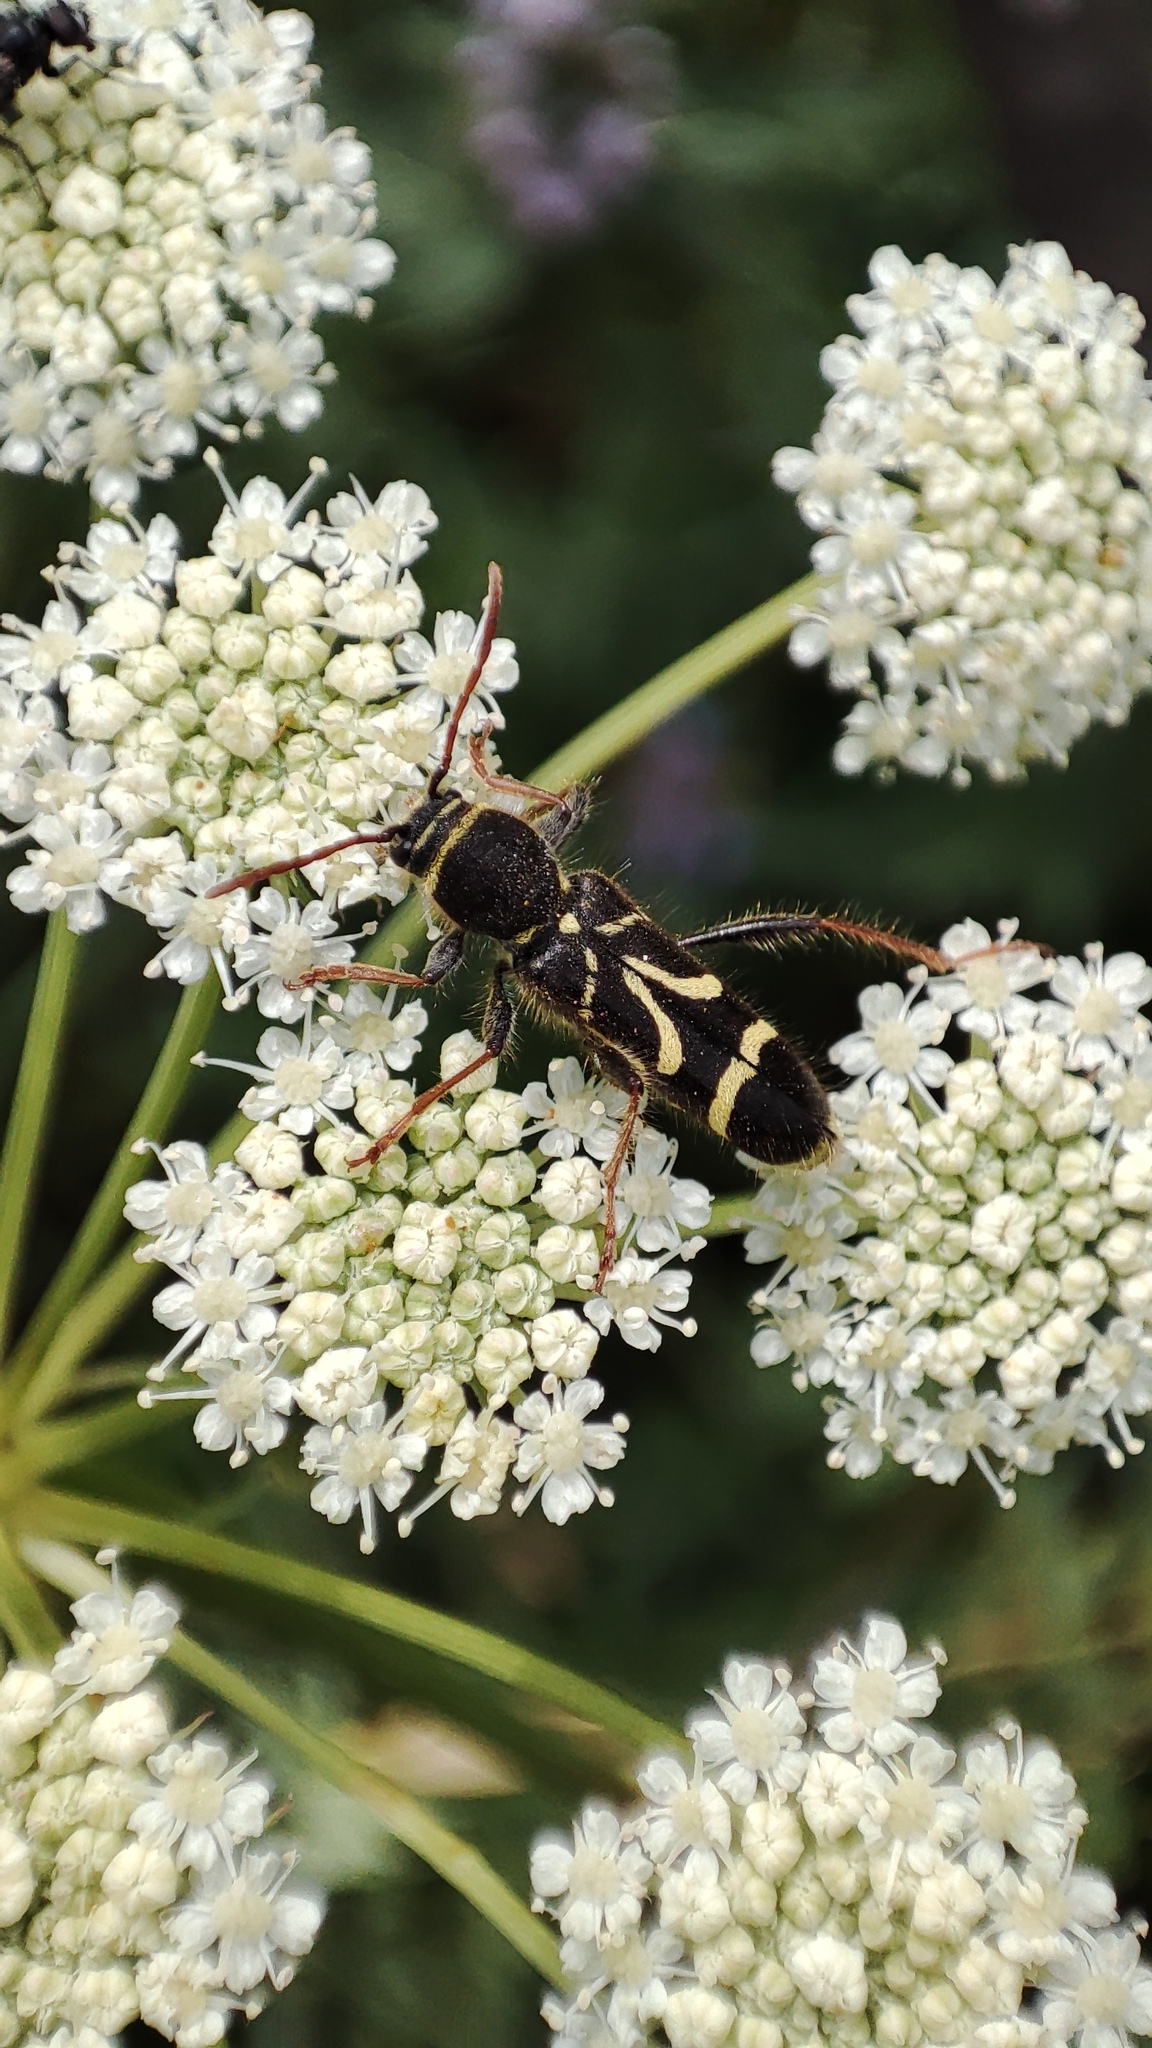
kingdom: Animalia
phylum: Arthropoda
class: Insecta
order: Coleoptera
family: Cerambycidae
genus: Cyrtoclytus
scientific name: Cyrtoclytus capra
